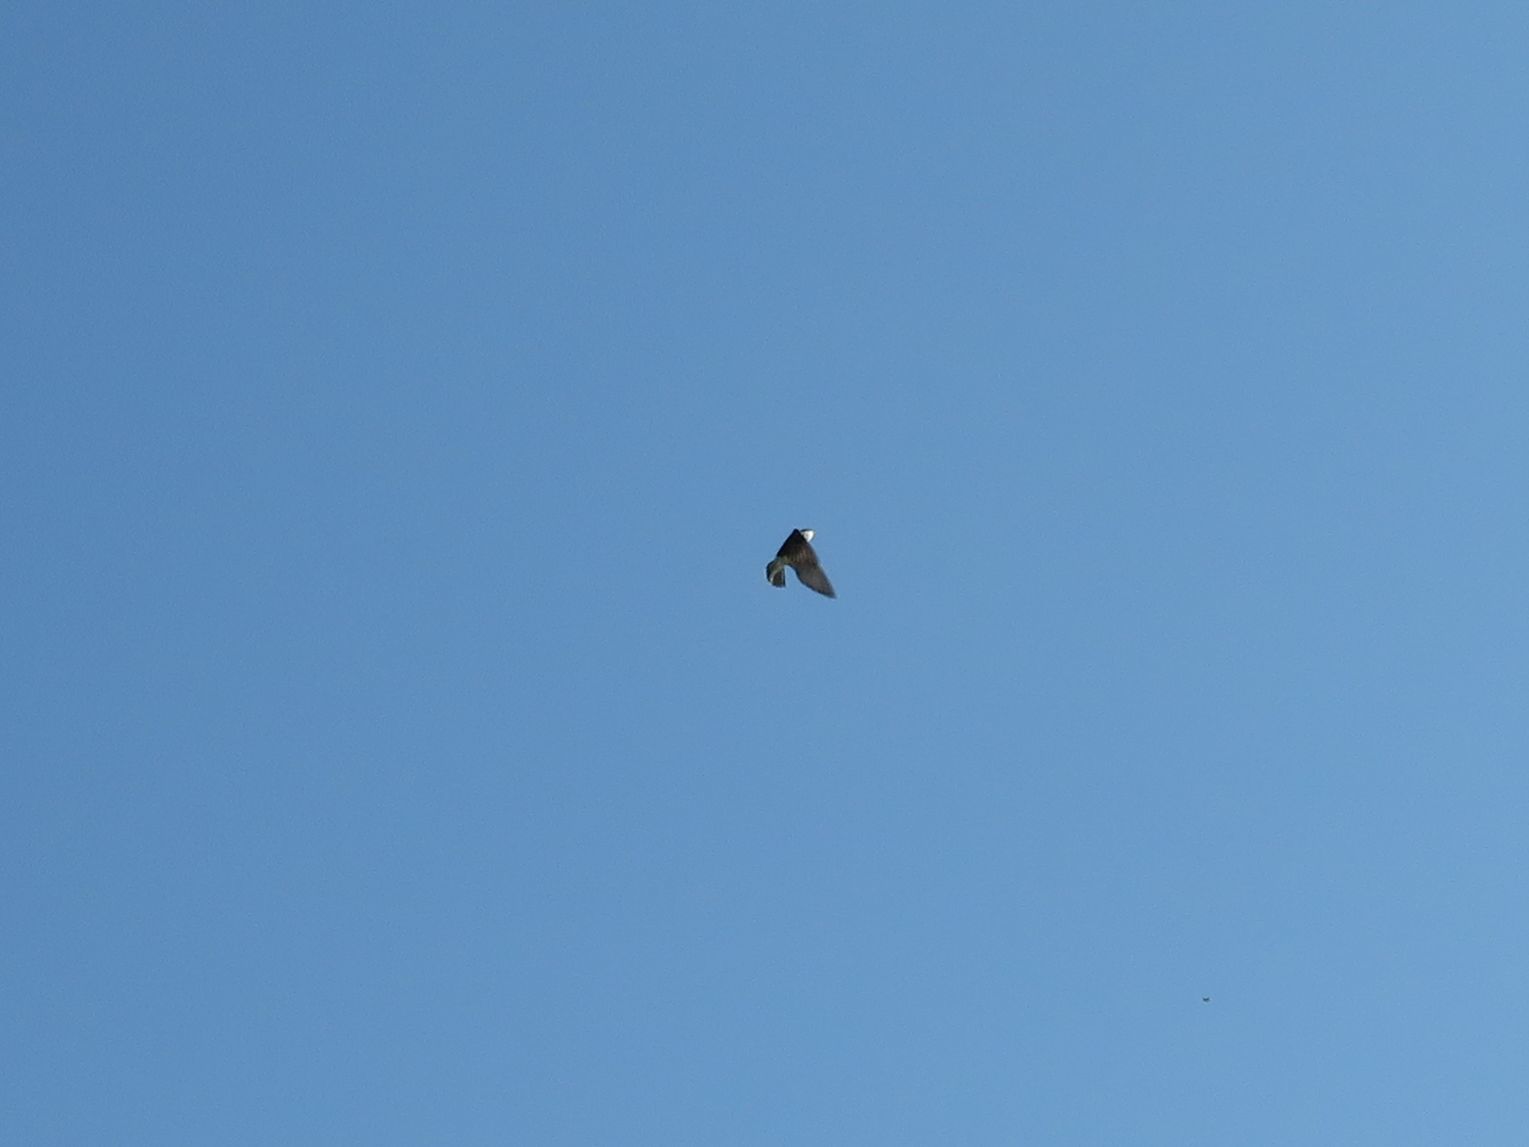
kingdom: Animalia
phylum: Chordata
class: Aves
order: Passeriformes
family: Hirundinidae
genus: Tachycineta
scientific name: Tachycineta leucorrhoa
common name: White-rumped swallow
